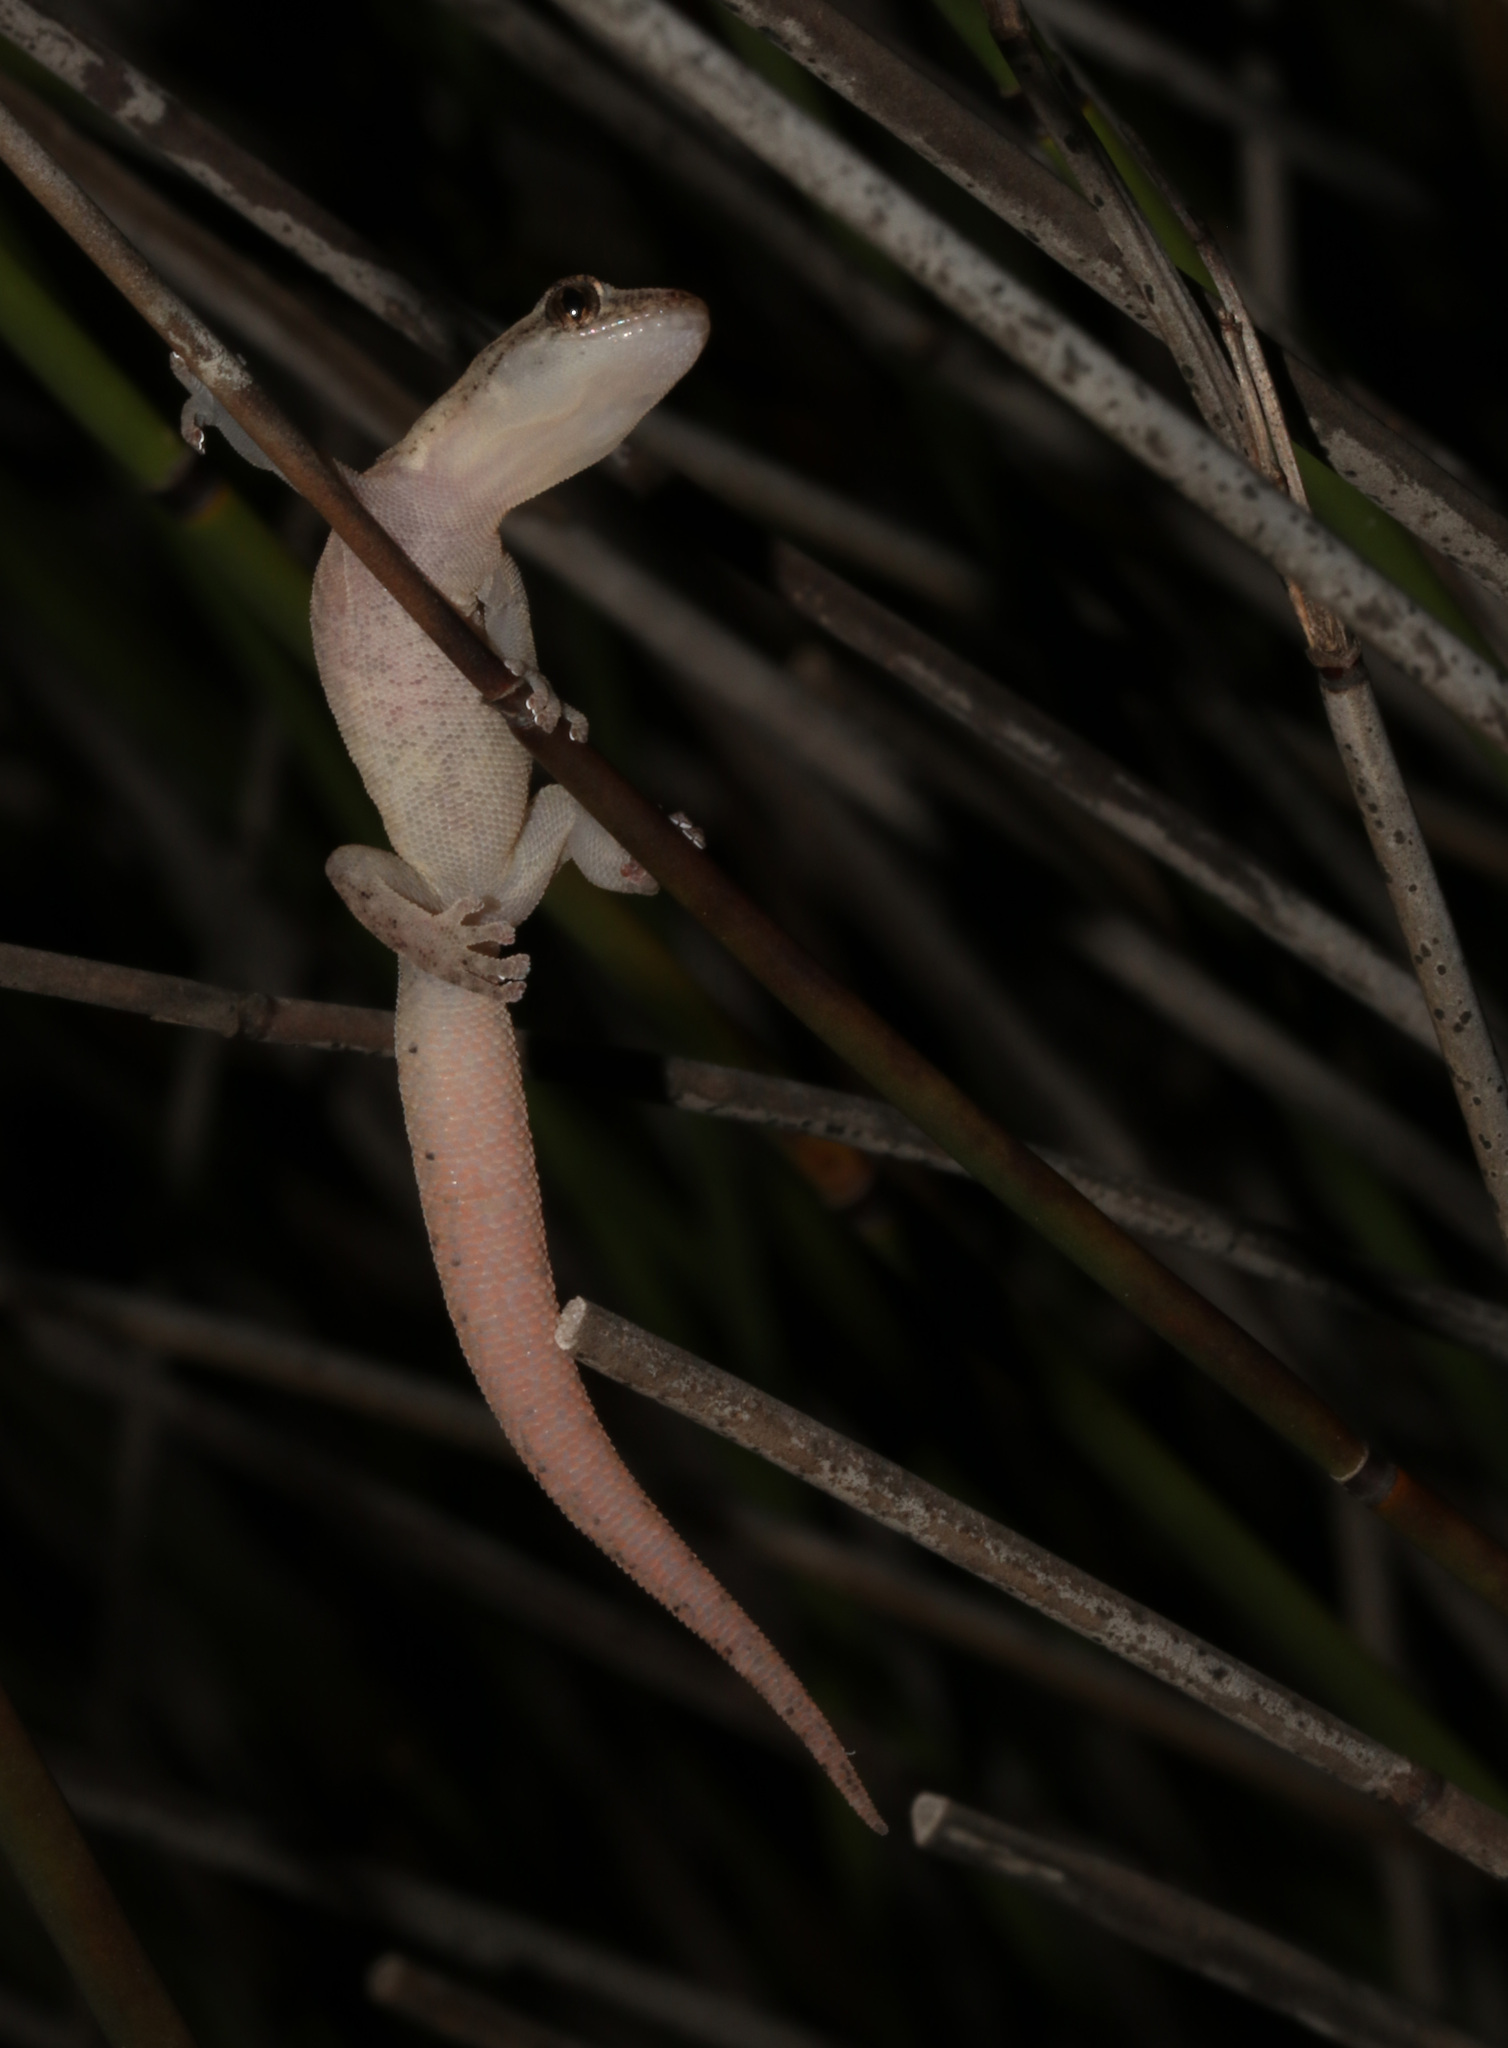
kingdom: Animalia
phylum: Chordata
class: Squamata
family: Gekkonidae
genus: Afrogecko
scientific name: Afrogecko porphyreus
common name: Marbled leaf-toed gecko
